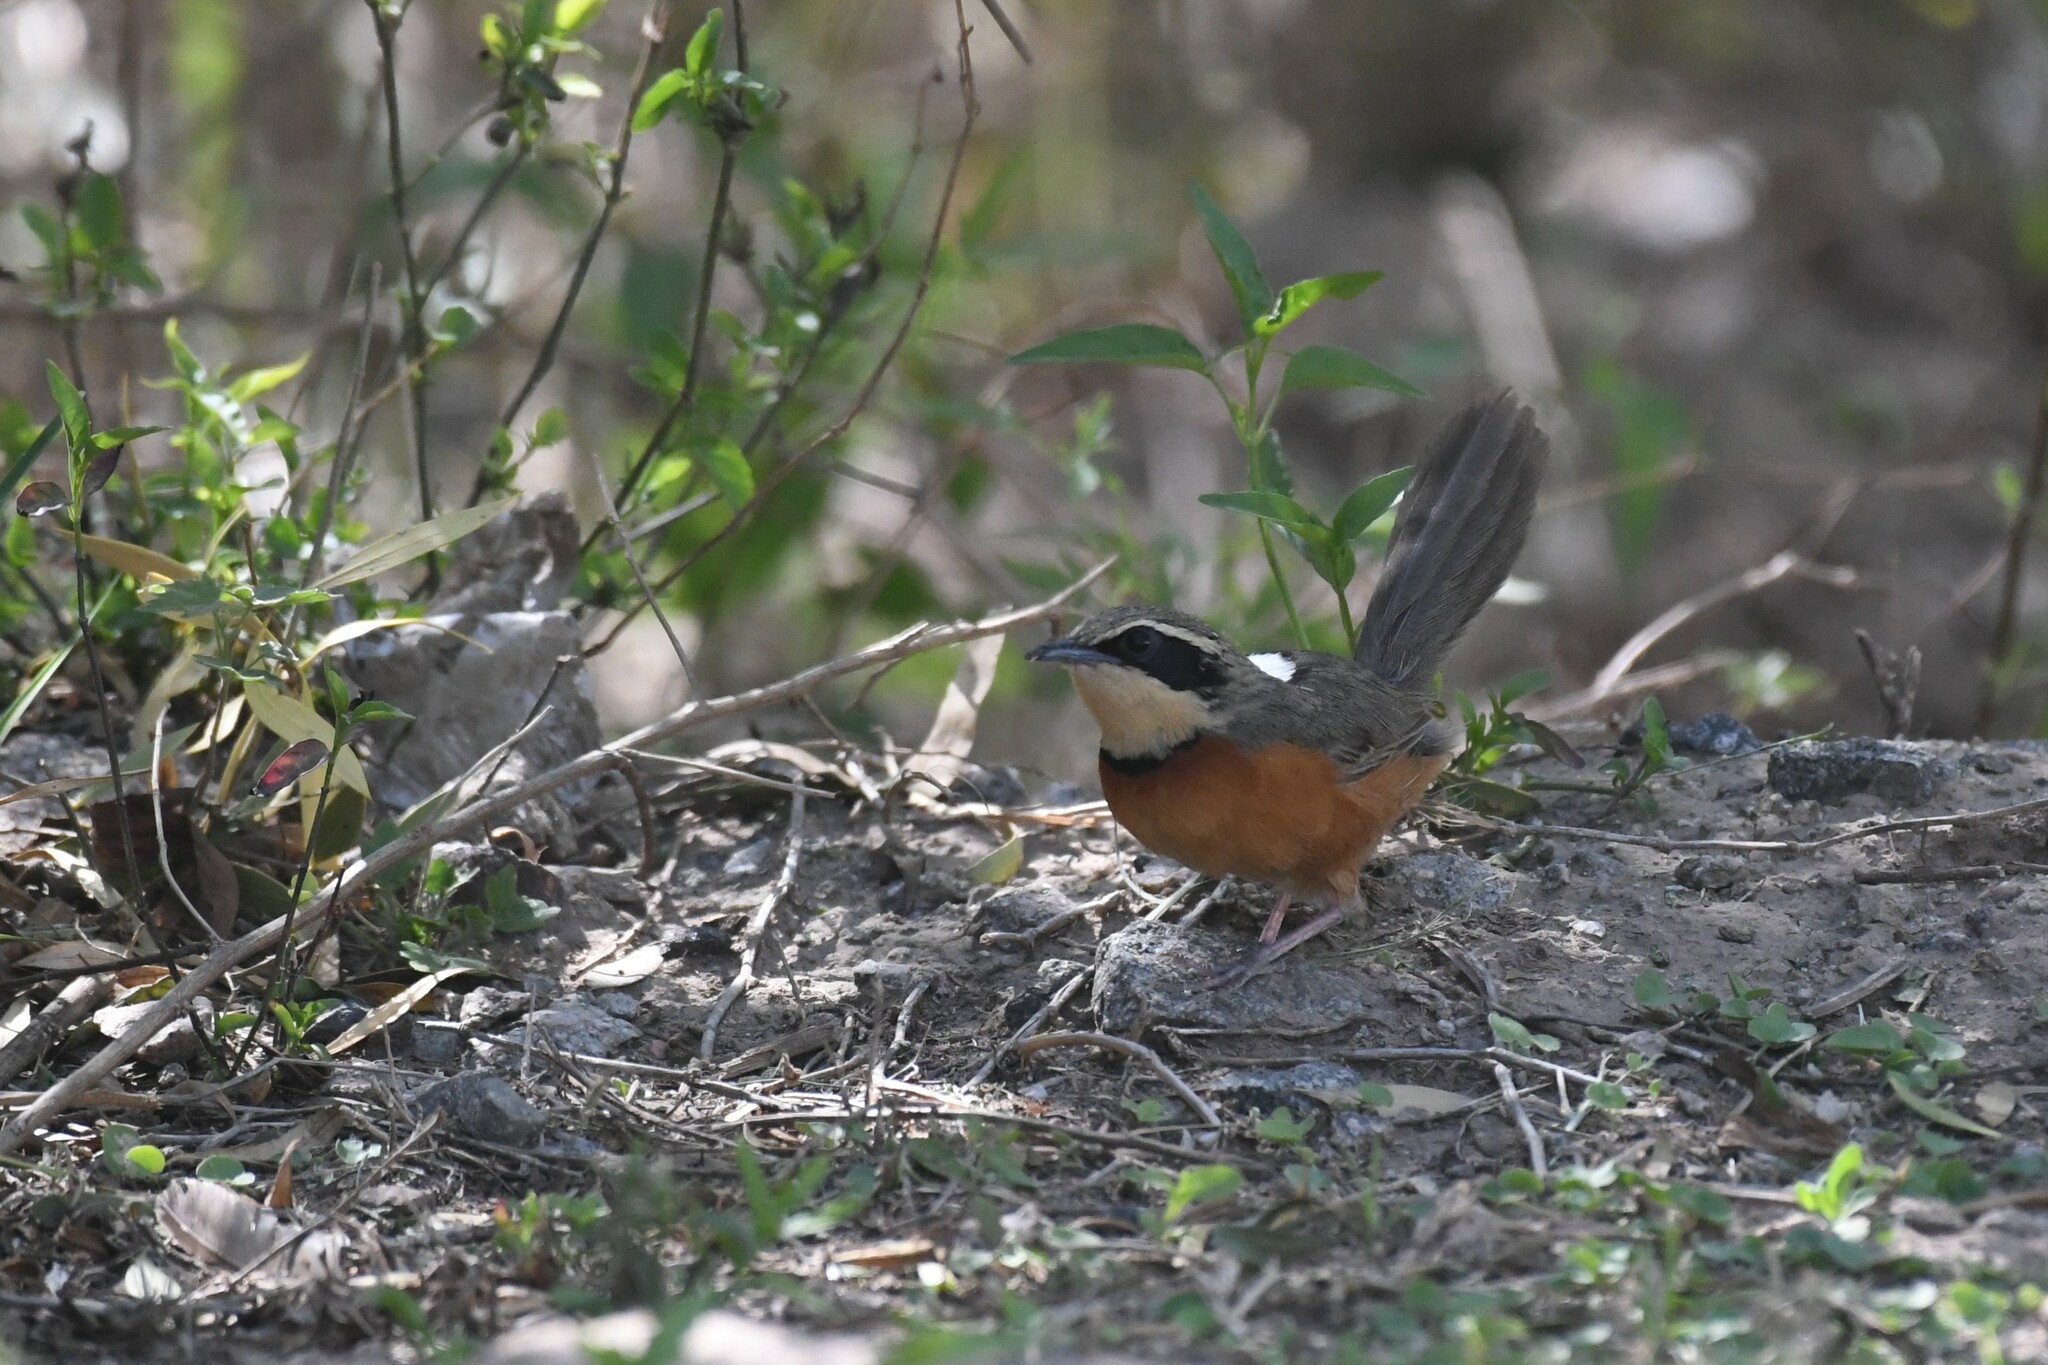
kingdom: Animalia
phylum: Chordata
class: Aves
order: Passeriformes
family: Melanopareiidae
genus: Melanopareia
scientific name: Melanopareia maximiliani
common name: Olive-crowned crescentchest
